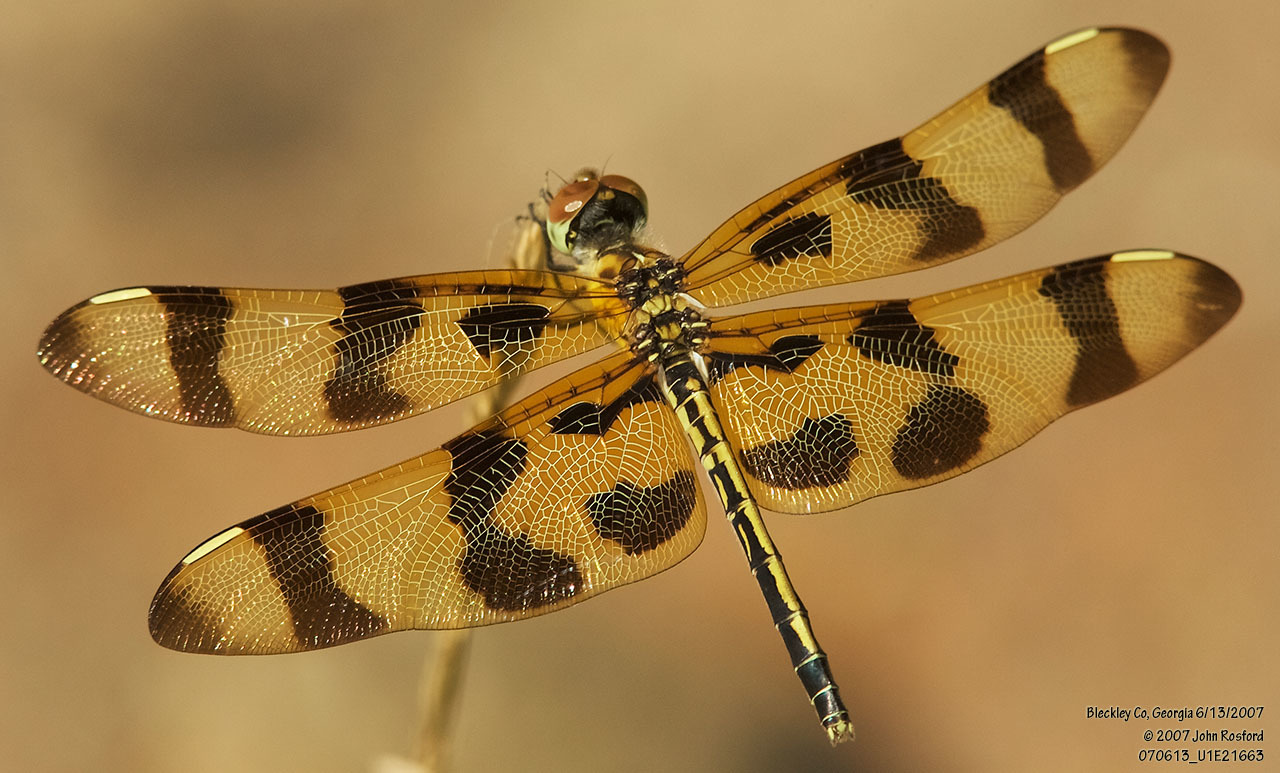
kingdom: Animalia
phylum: Arthropoda
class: Insecta
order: Odonata
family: Libellulidae
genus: Celithemis
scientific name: Celithemis eponina
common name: Halloween pennant
